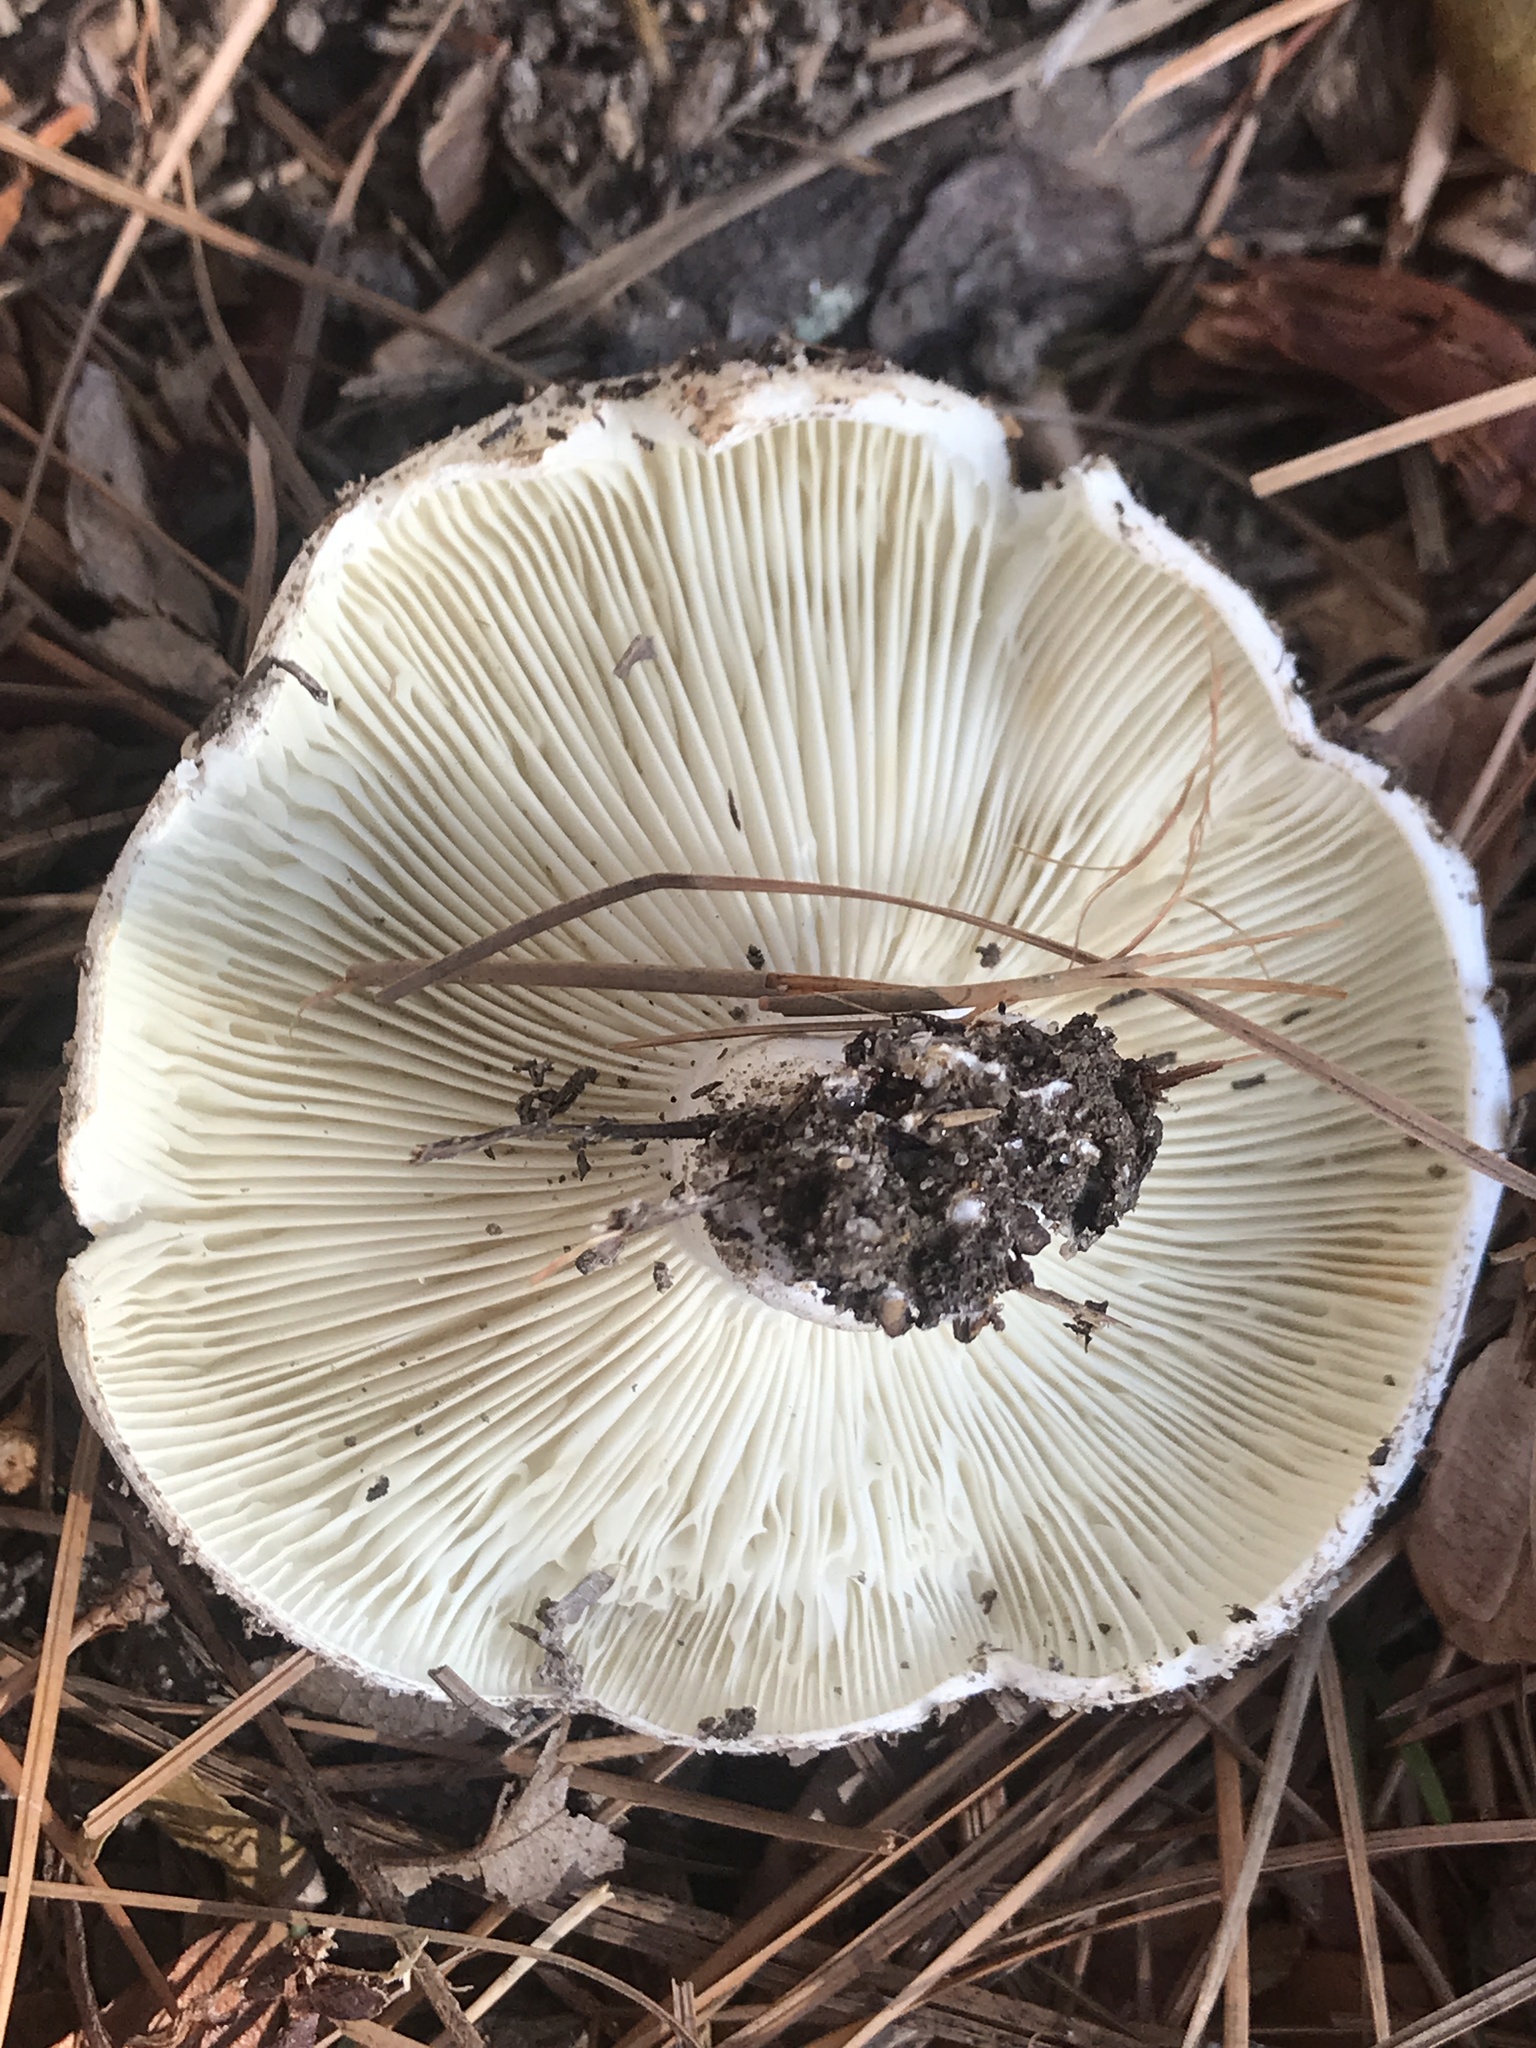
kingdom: Fungi
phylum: Basidiomycota
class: Agaricomycetes
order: Russulales
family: Russulaceae
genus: Russula
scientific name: Russula chloroides
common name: Blue band brittlegill
